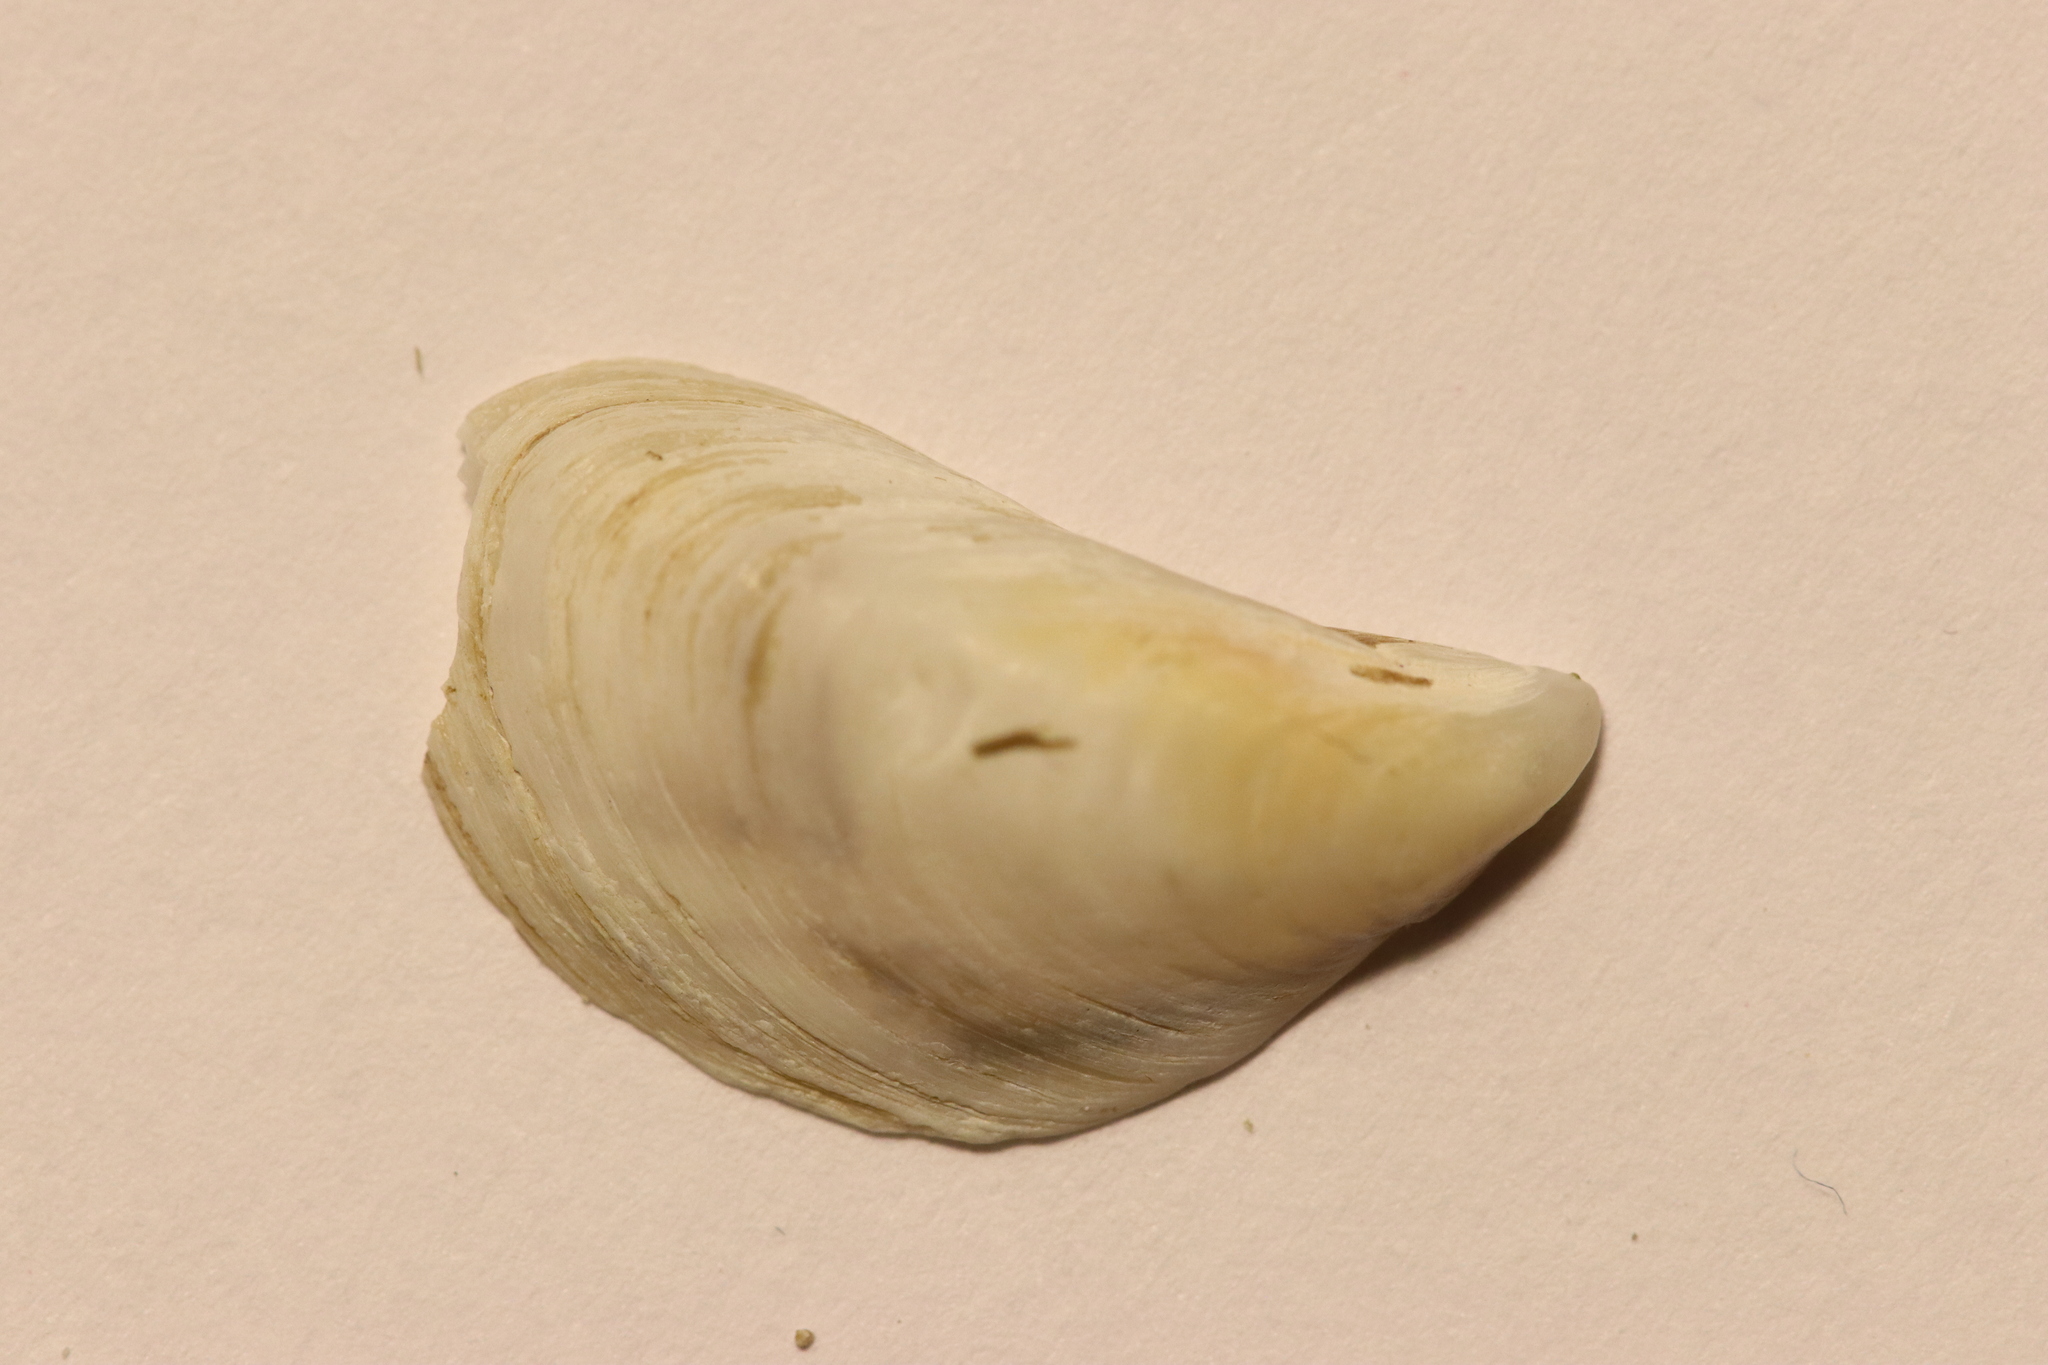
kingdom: Animalia
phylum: Mollusca
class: Bivalvia
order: Myida
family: Dreissenidae
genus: Dreissena
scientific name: Dreissena bugensis
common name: Quagga mussel
